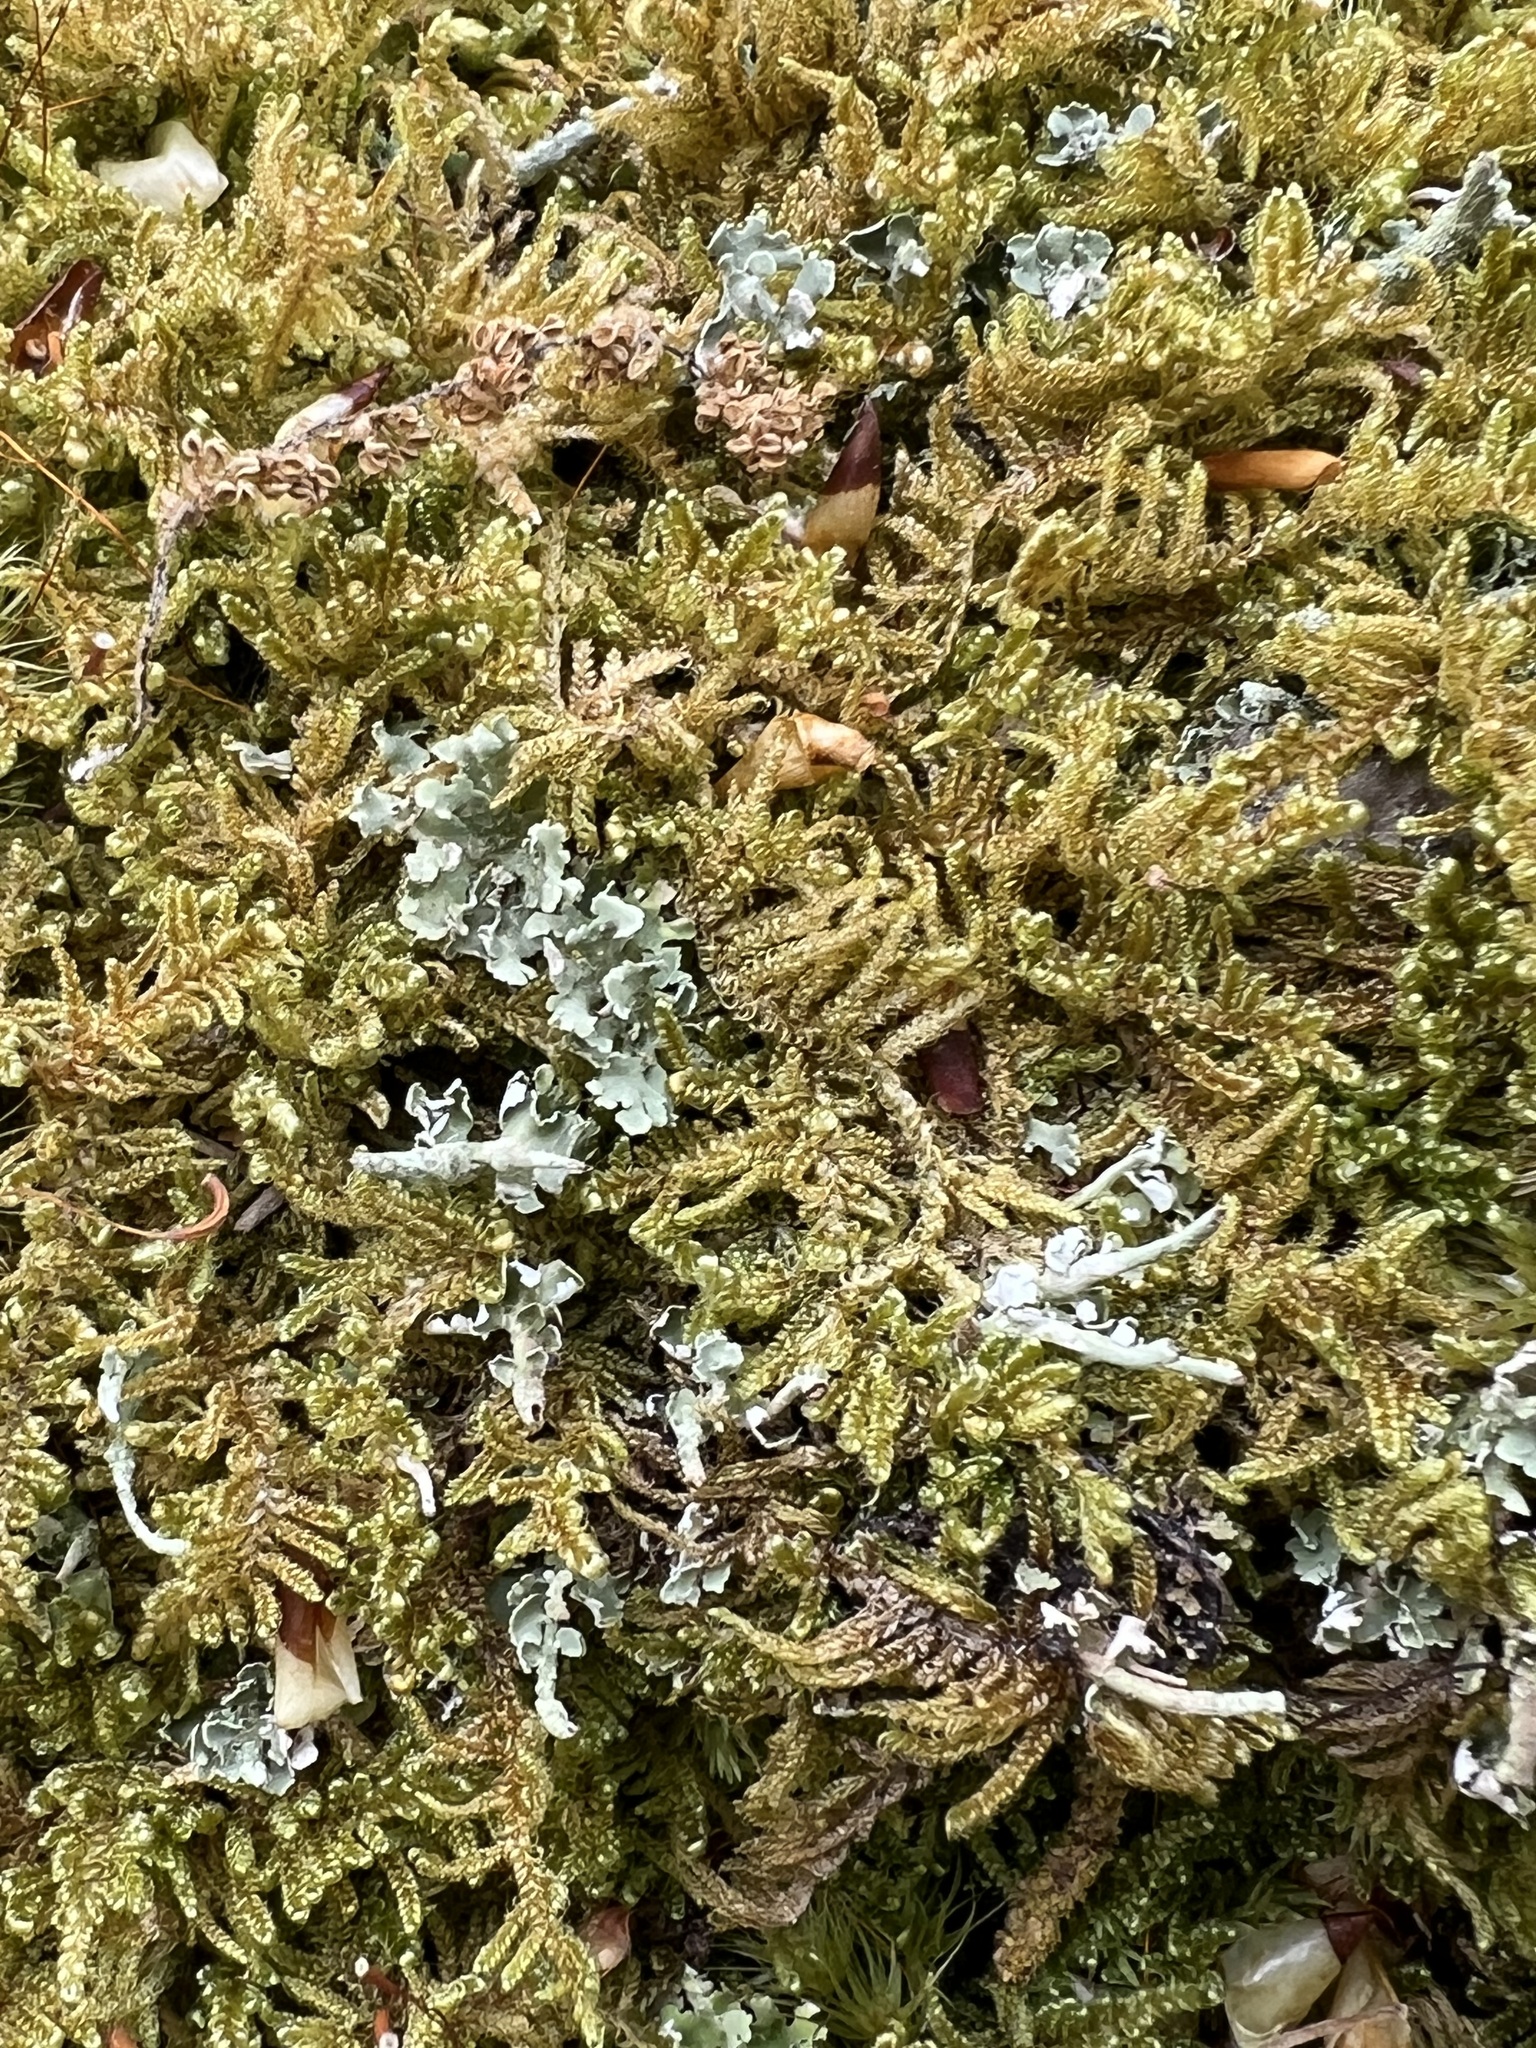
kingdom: Plantae
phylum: Bryophyta
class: Bryopsida
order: Hypnales
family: Callicladiaceae
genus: Callicladium
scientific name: Callicladium imponens
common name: Brocade moss
